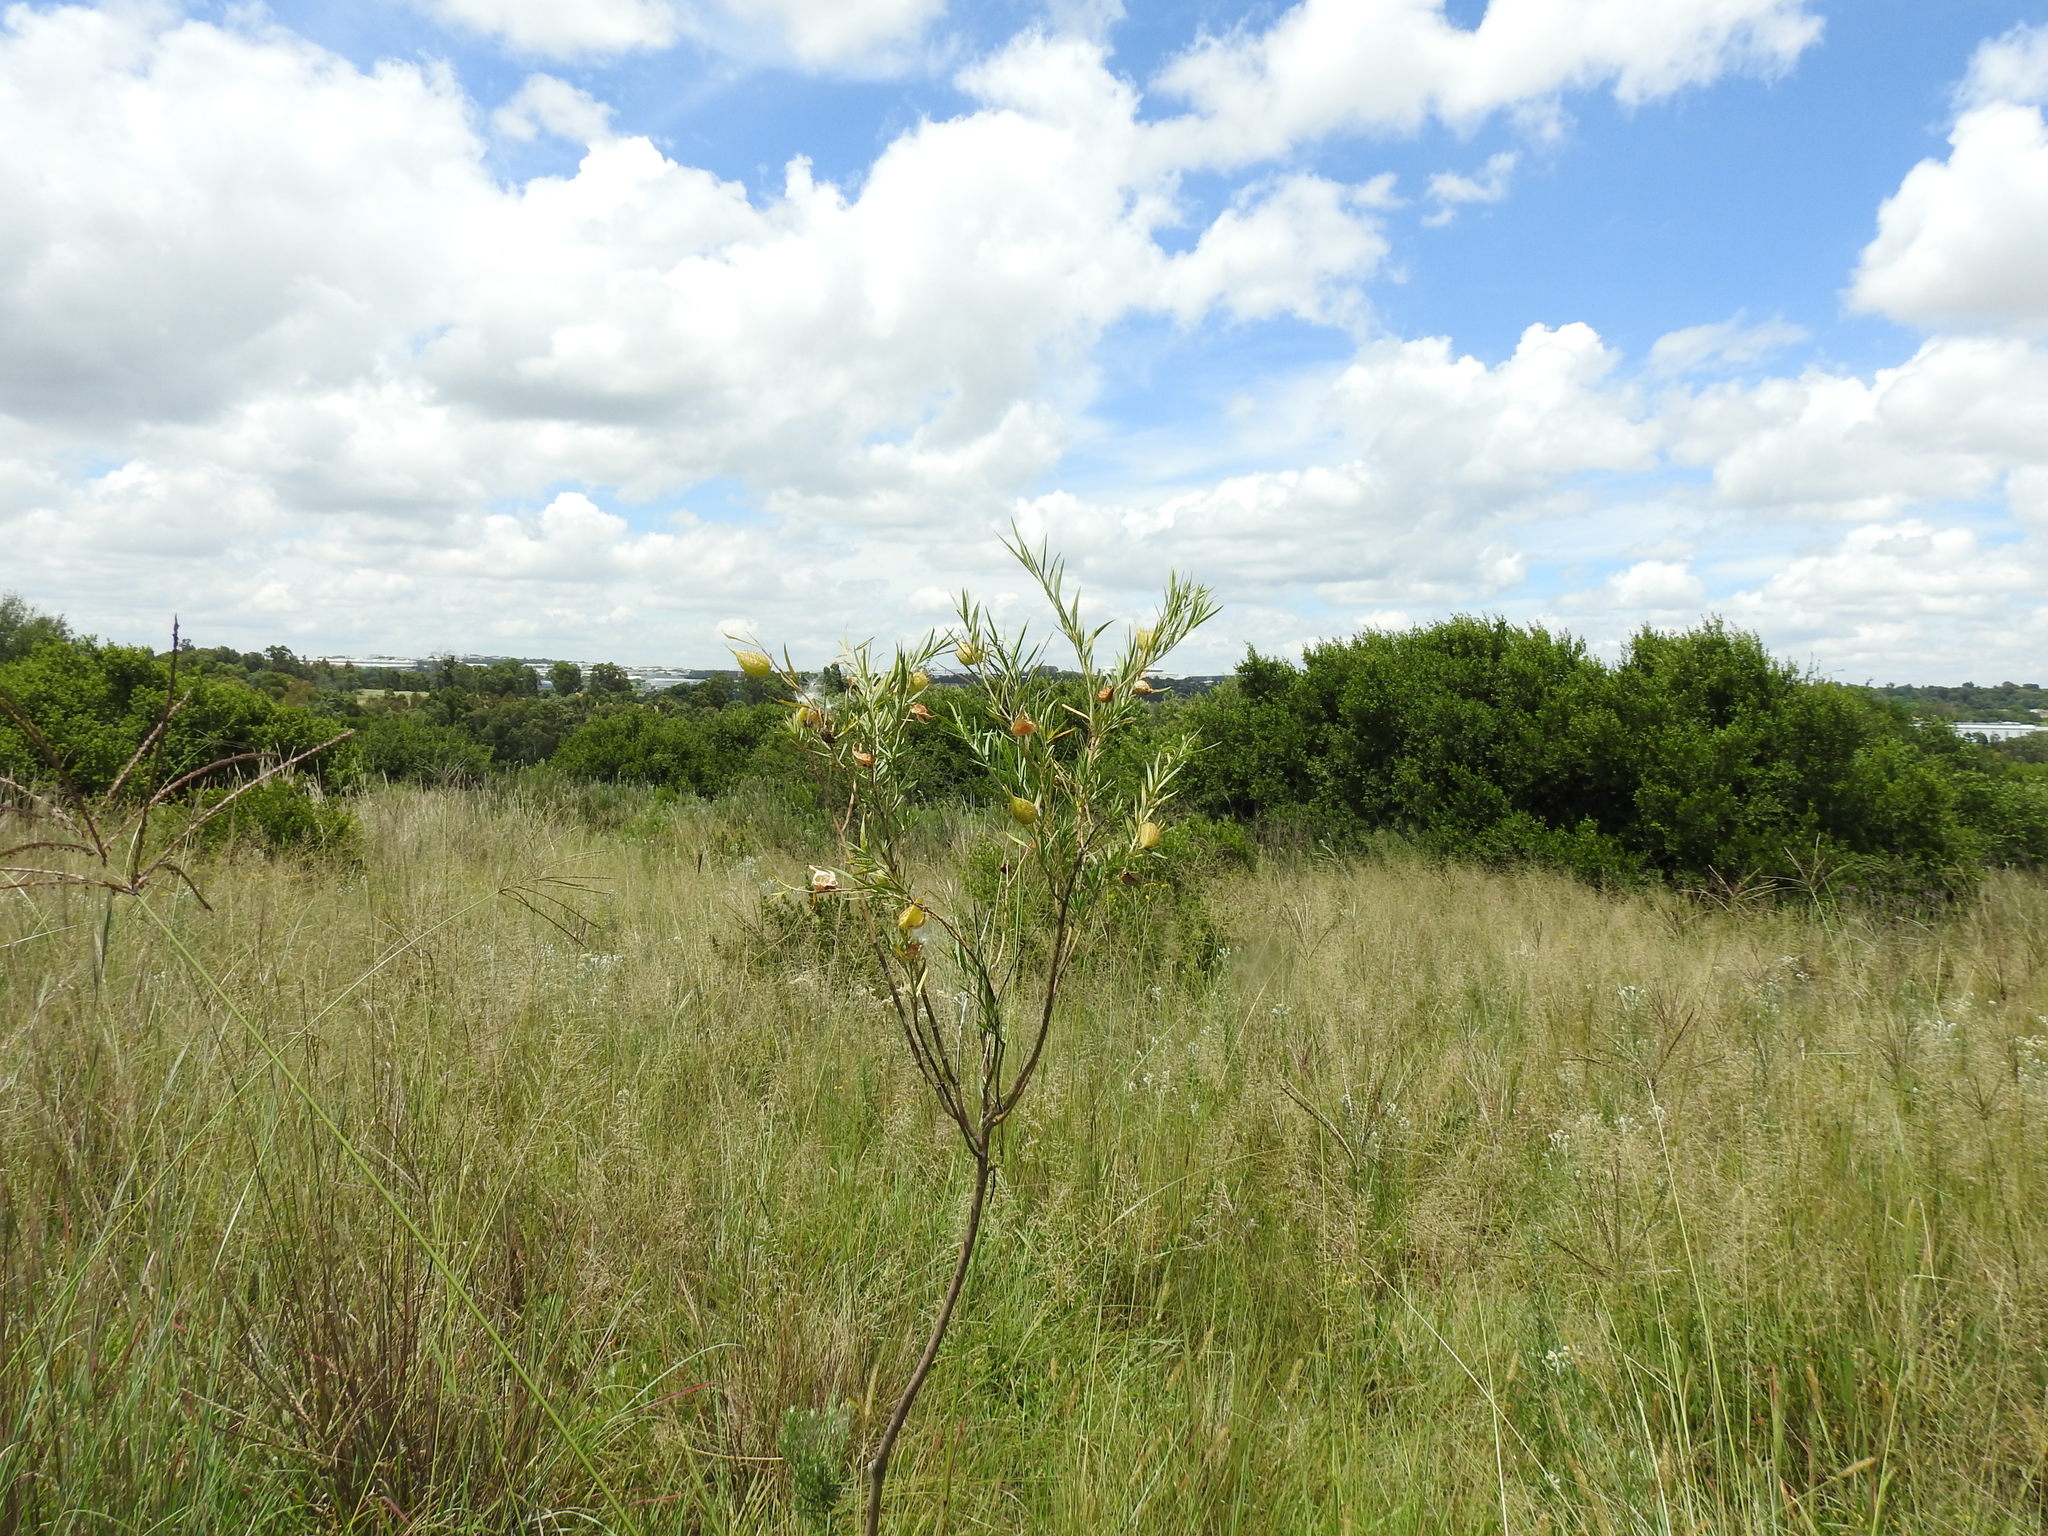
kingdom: Plantae
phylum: Tracheophyta
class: Magnoliopsida
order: Gentianales
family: Apocynaceae
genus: Gomphocarpus
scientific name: Gomphocarpus fruticosus
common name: Milkweed
